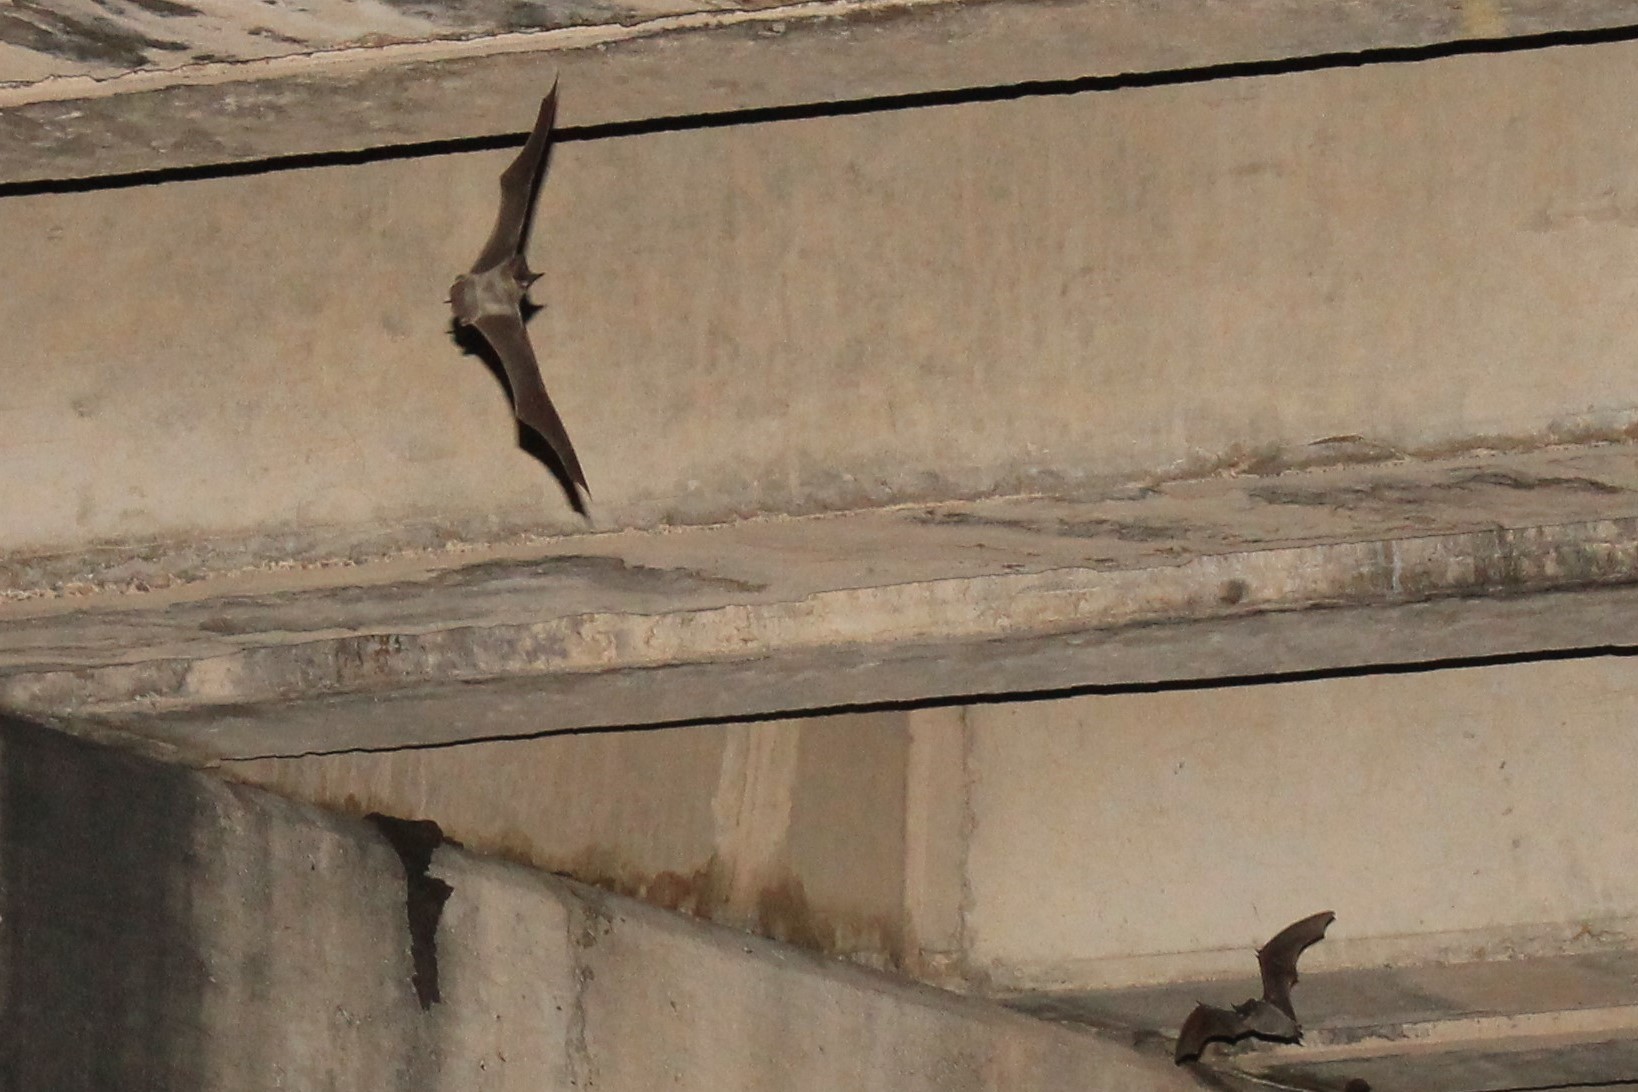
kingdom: Animalia
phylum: Chordata
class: Mammalia
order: Chiroptera
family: Molossidae
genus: Tadarida
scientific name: Tadarida brasiliensis
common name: Mexican free-tailed bat
